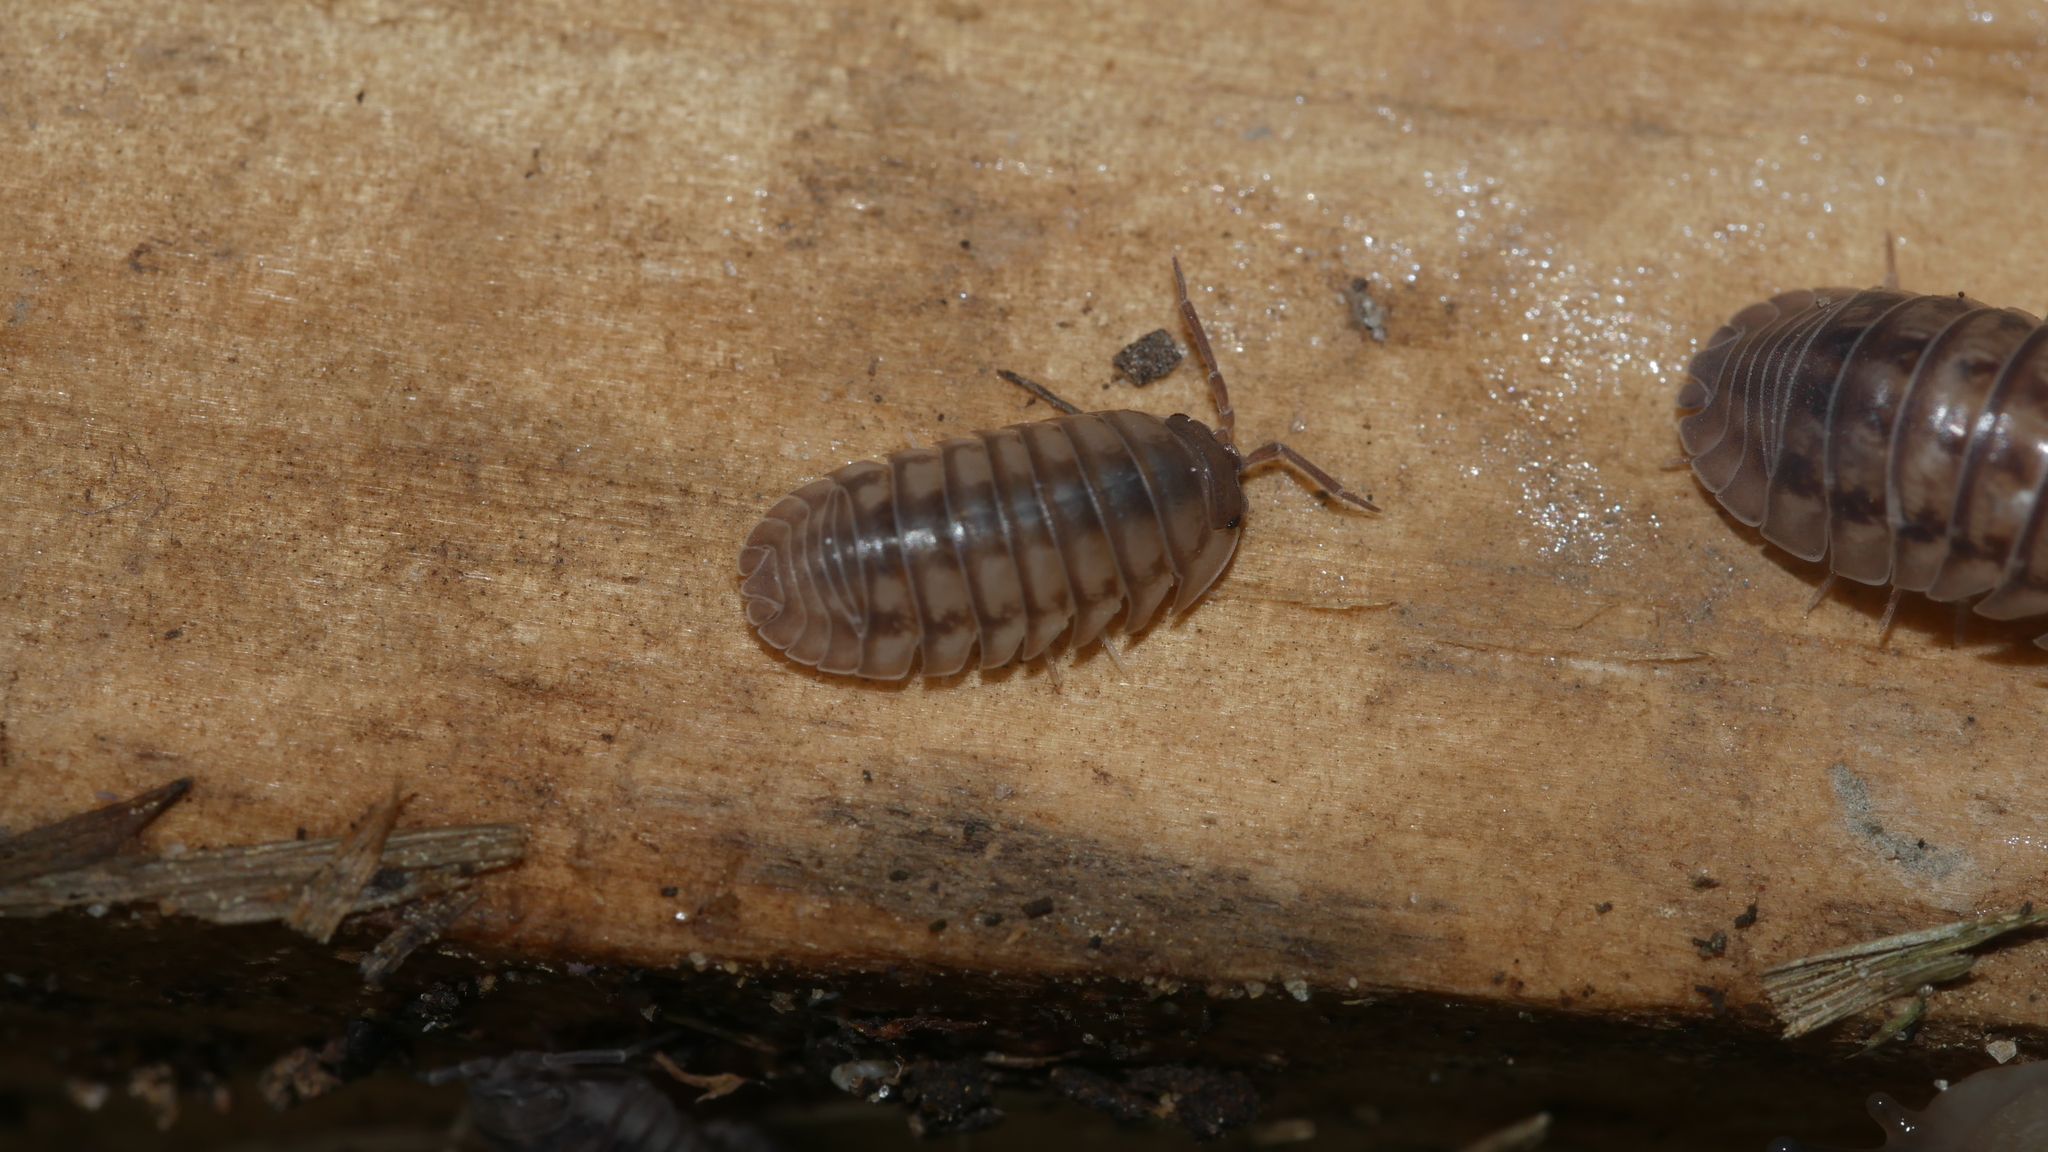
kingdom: Animalia
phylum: Arthropoda
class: Malacostraca
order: Isopoda
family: Armadillidiidae
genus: Armadillidium
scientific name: Armadillidium nasatum
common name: Isopod
